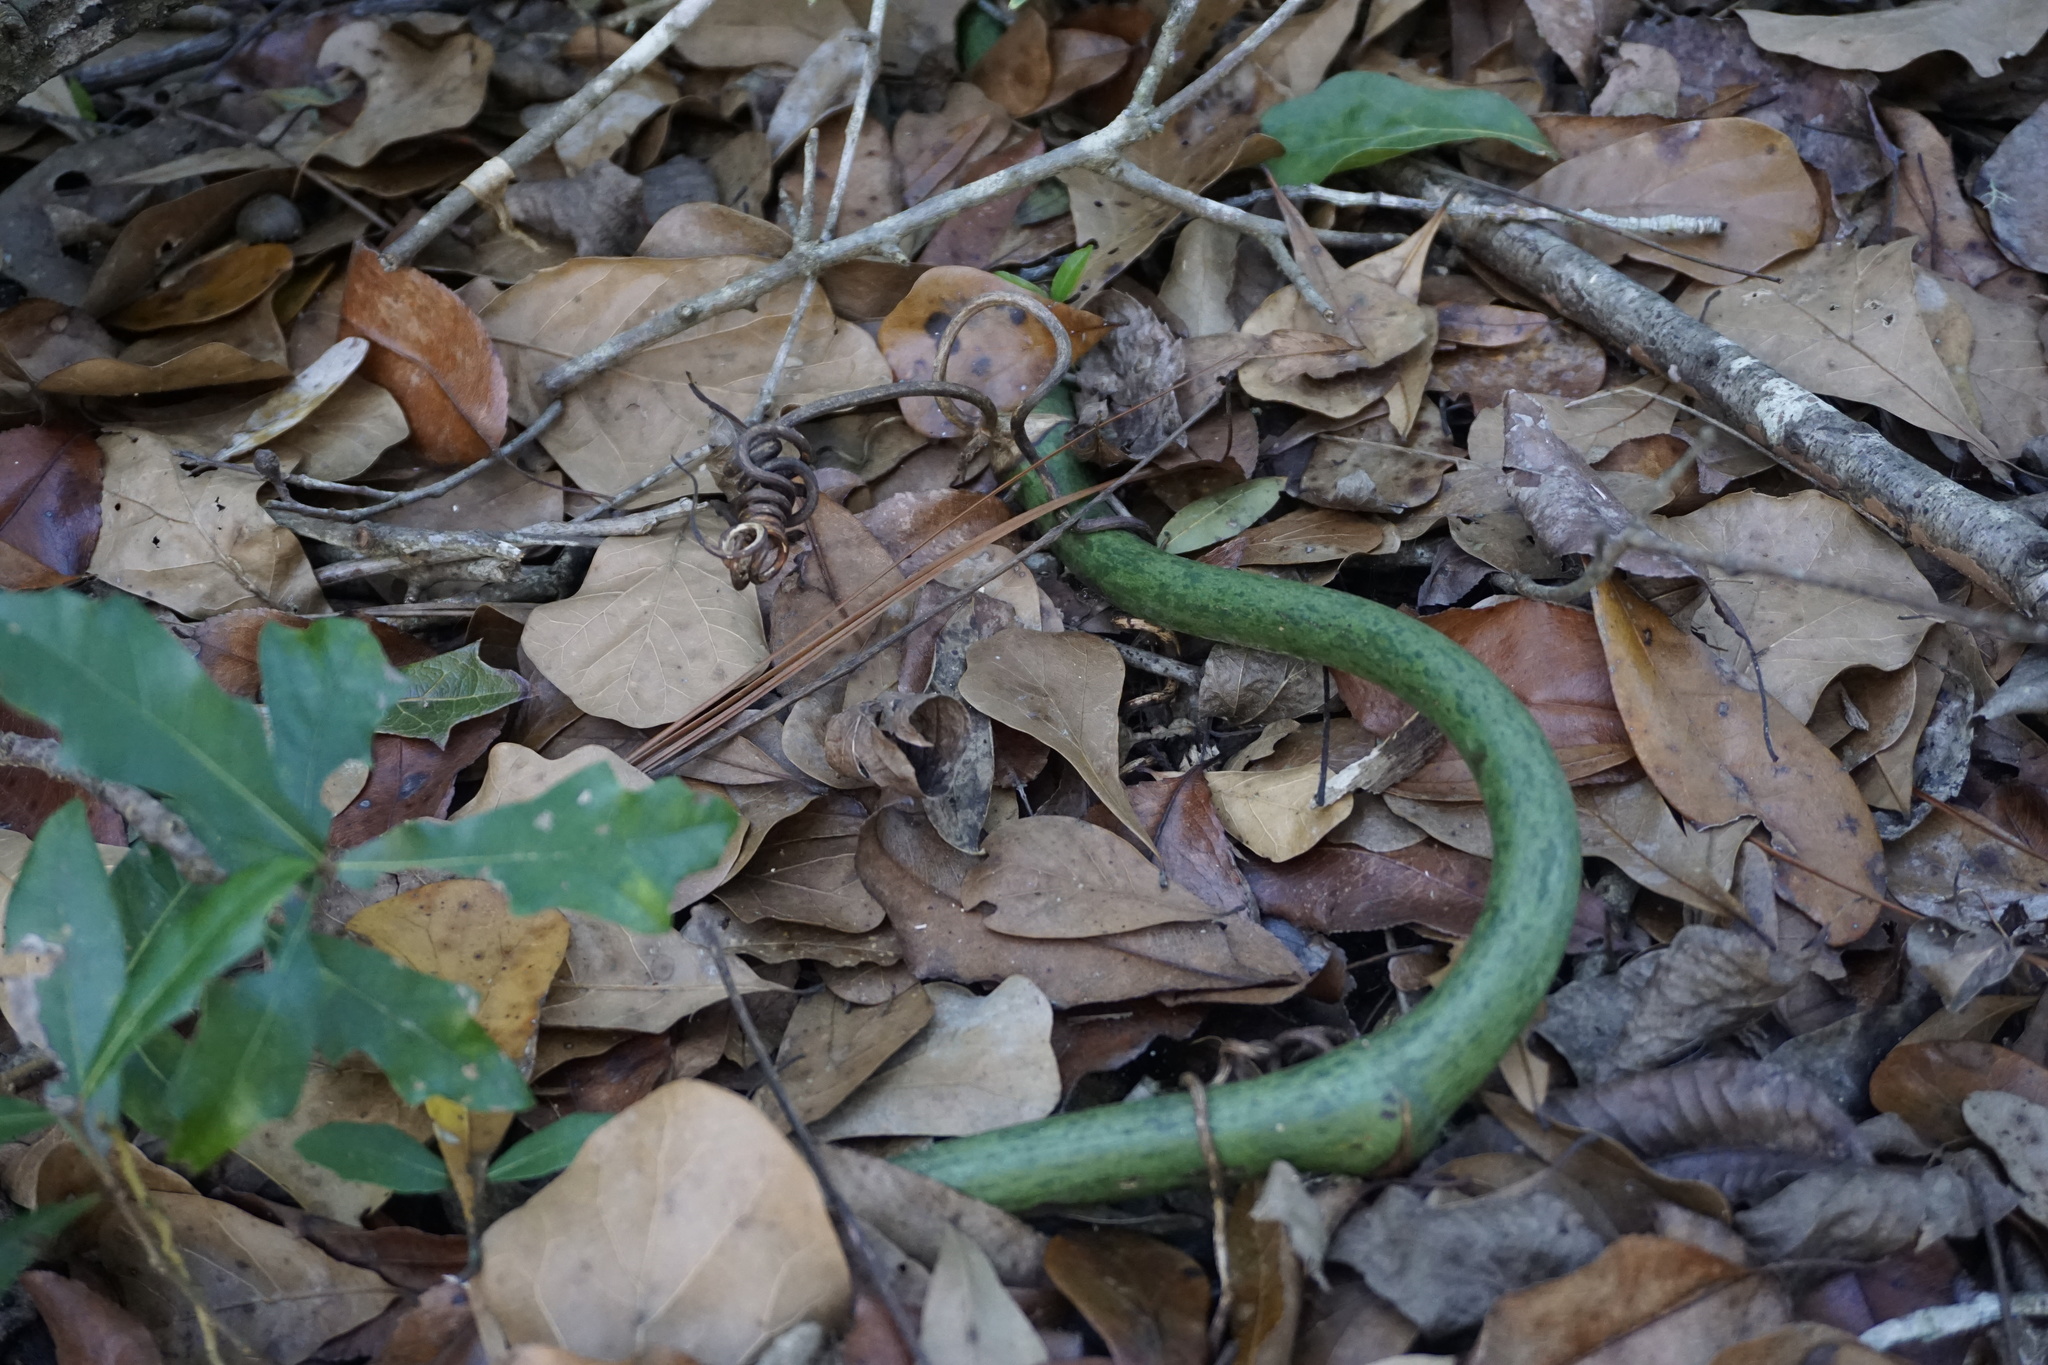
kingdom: Plantae
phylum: Tracheophyta
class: Liliopsida
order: Liliales
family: Smilacaceae
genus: Smilax
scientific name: Smilax maritima
